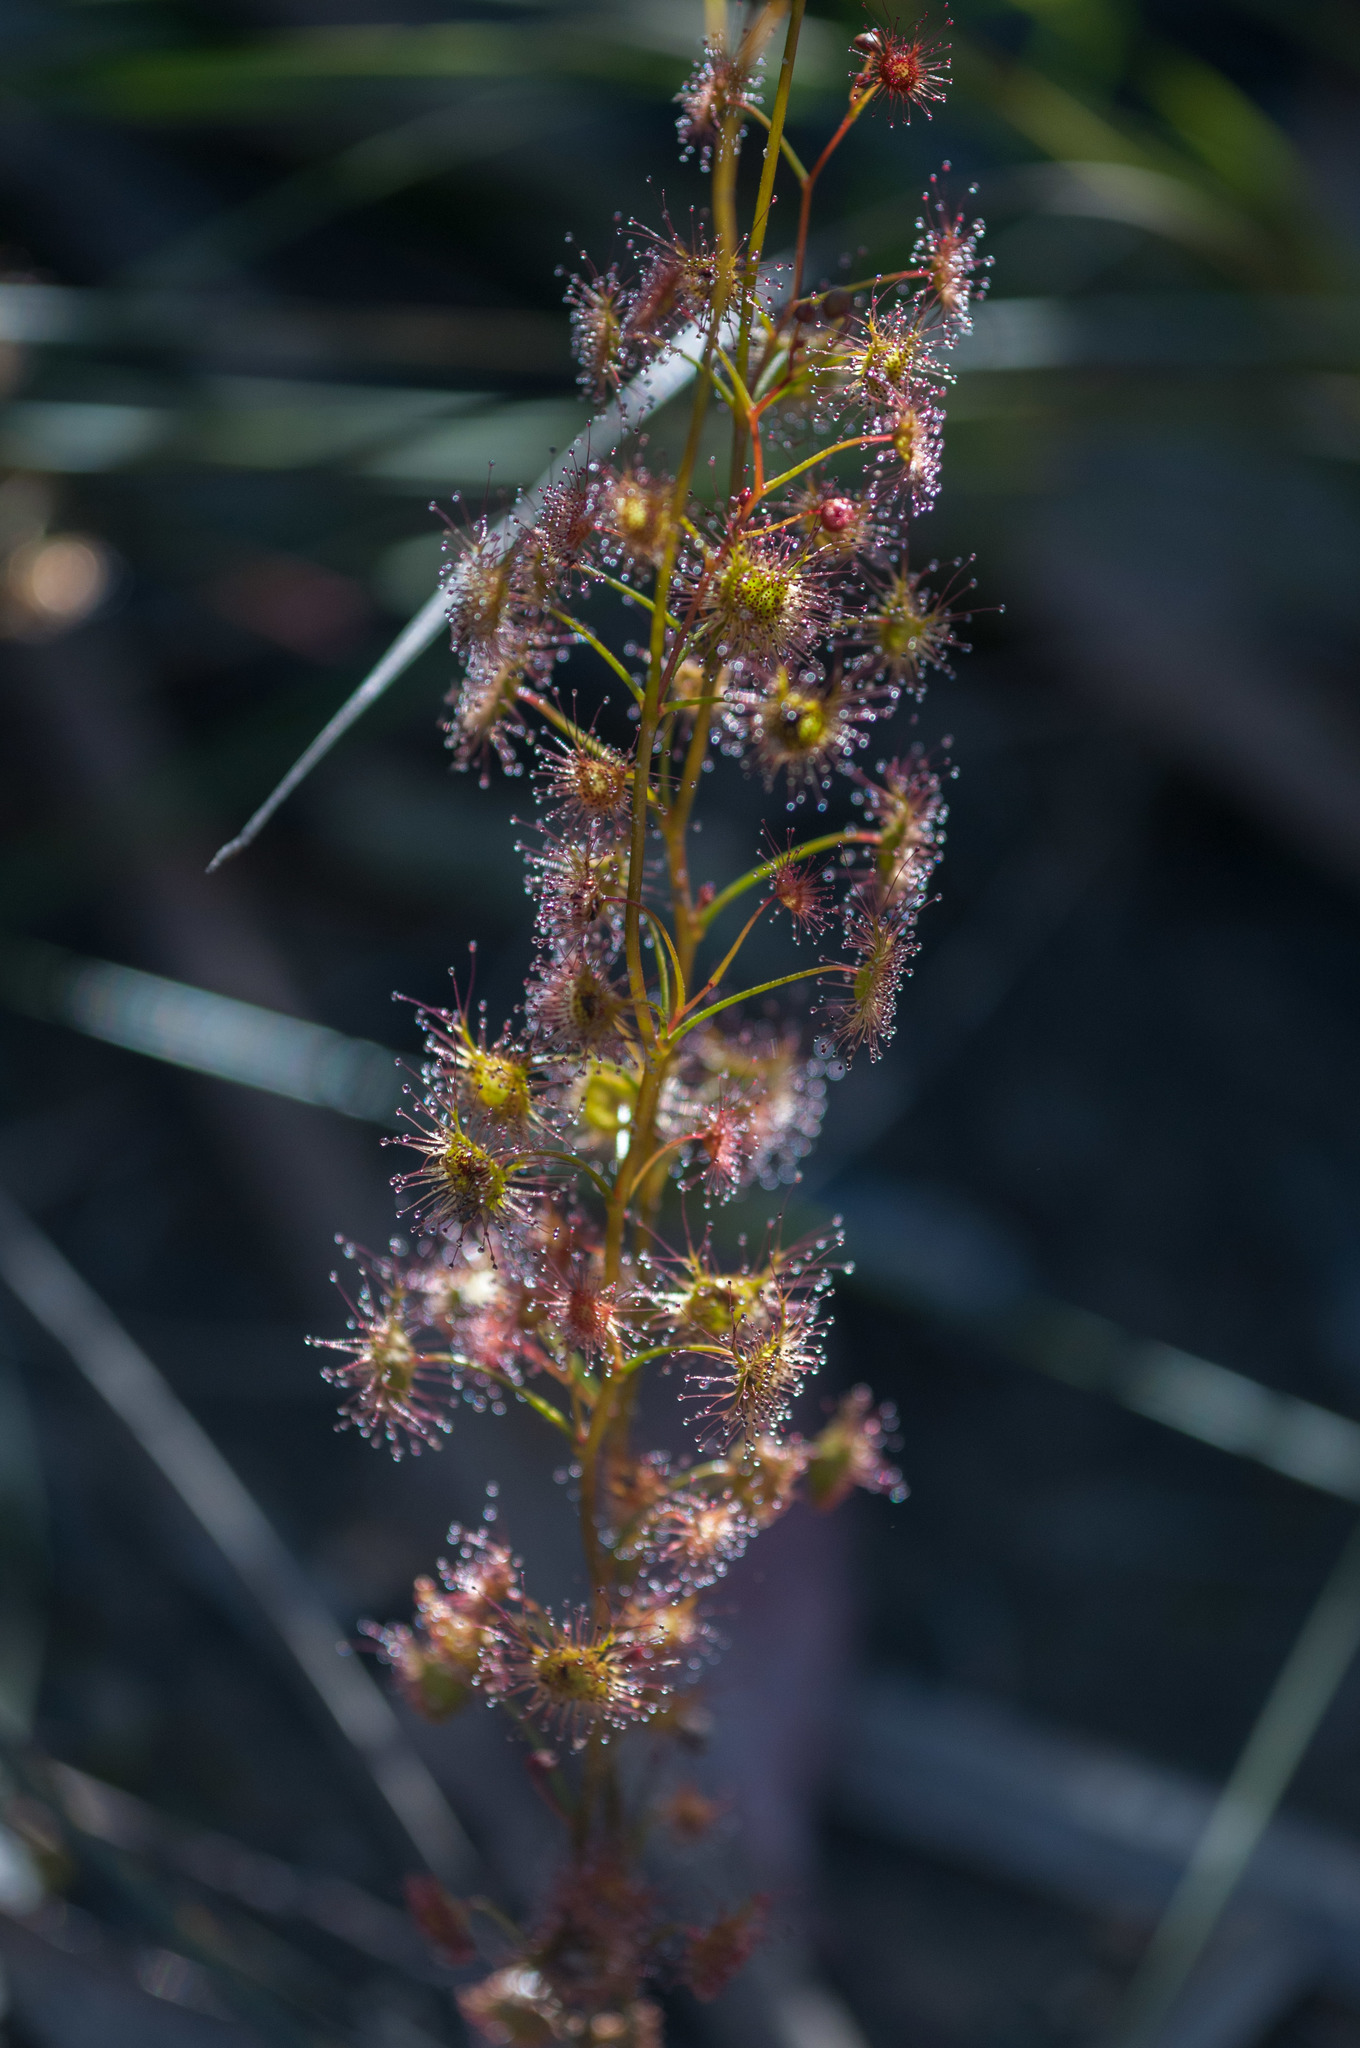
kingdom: Plantae
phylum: Tracheophyta
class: Magnoliopsida
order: Caryophyllales
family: Droseraceae
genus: Drosera
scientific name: Drosera peltata
